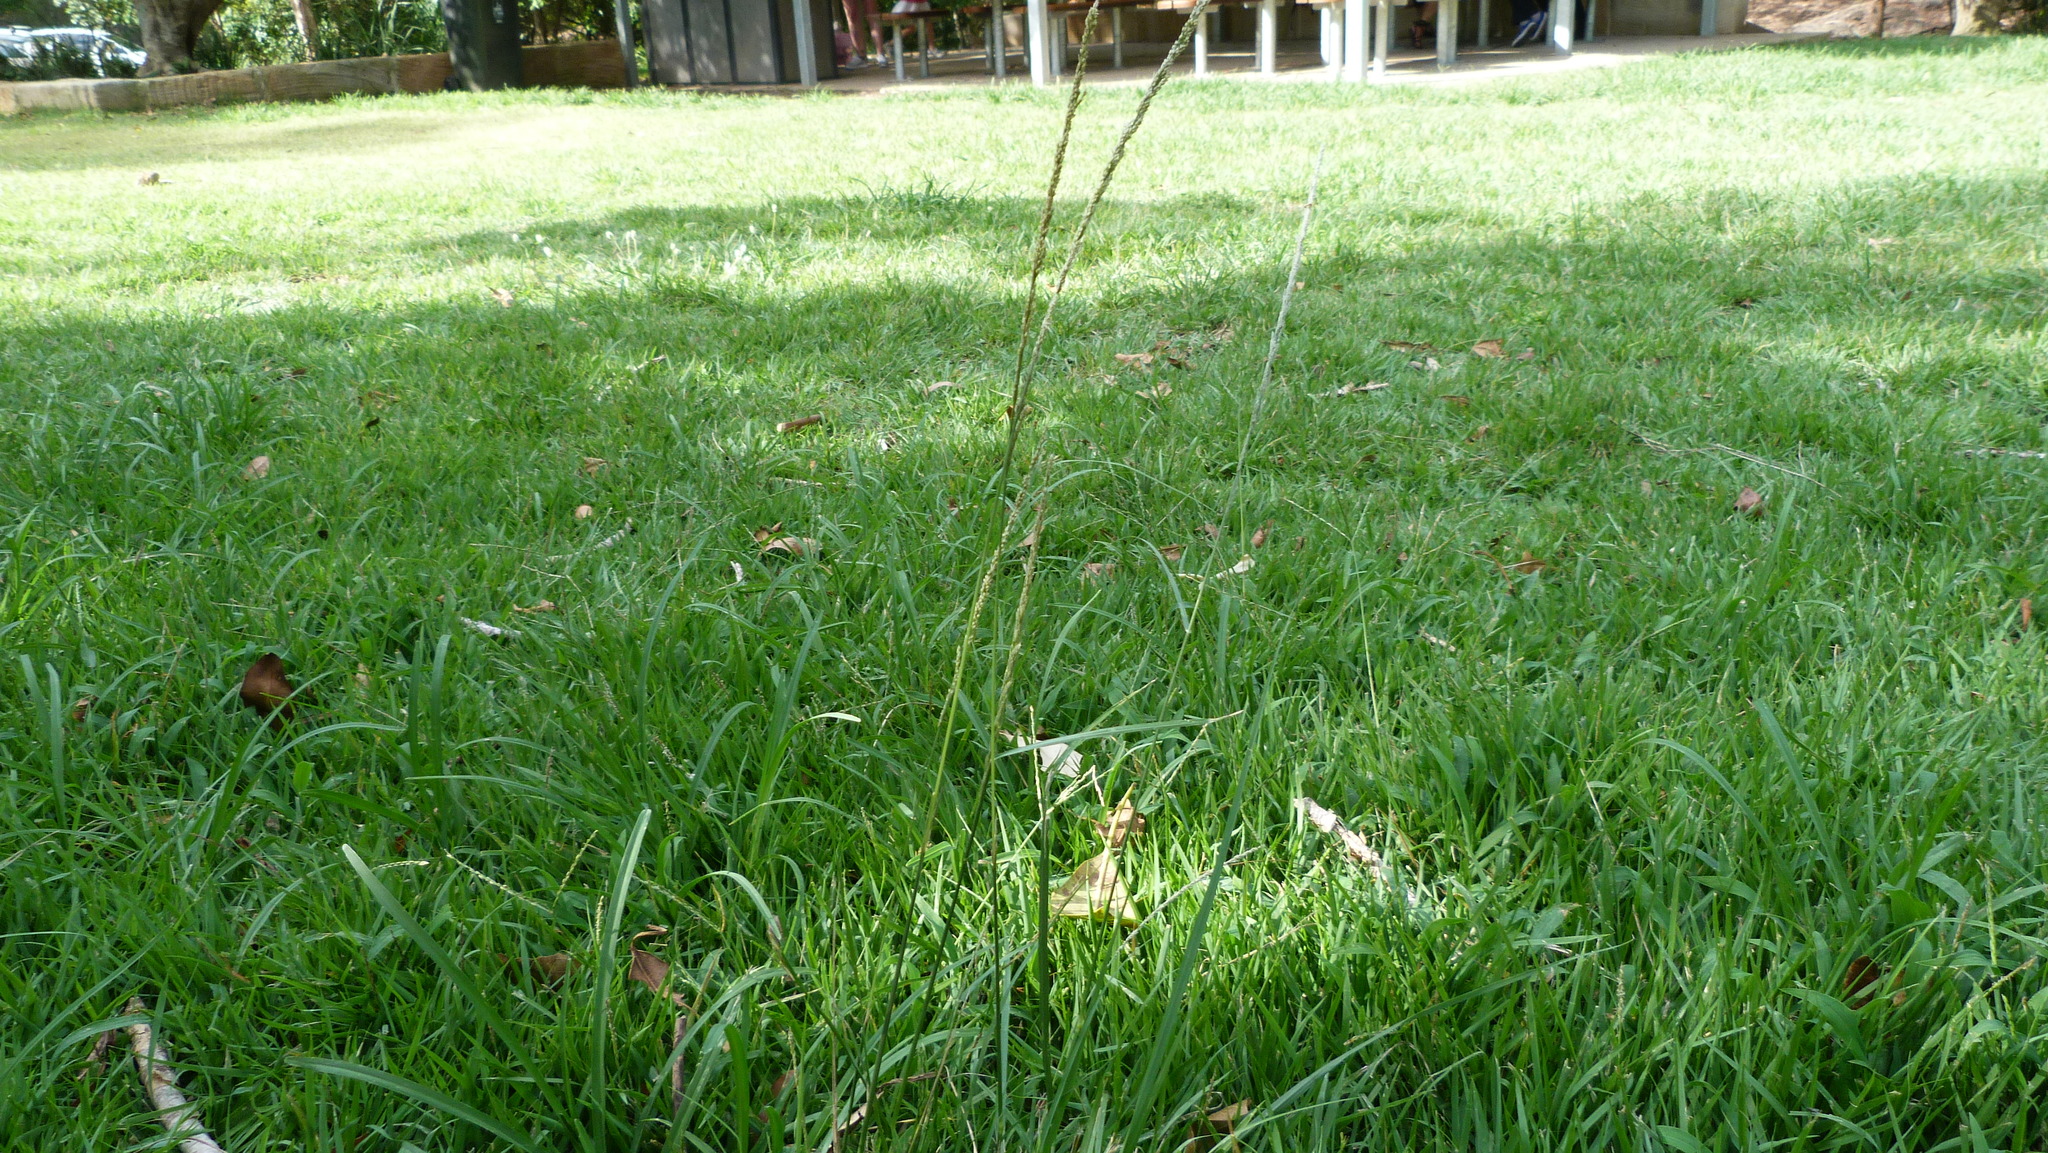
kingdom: Plantae
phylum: Tracheophyta
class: Liliopsida
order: Poales
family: Poaceae
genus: Sporobolus
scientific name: Sporobolus africanus
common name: African dropseed
